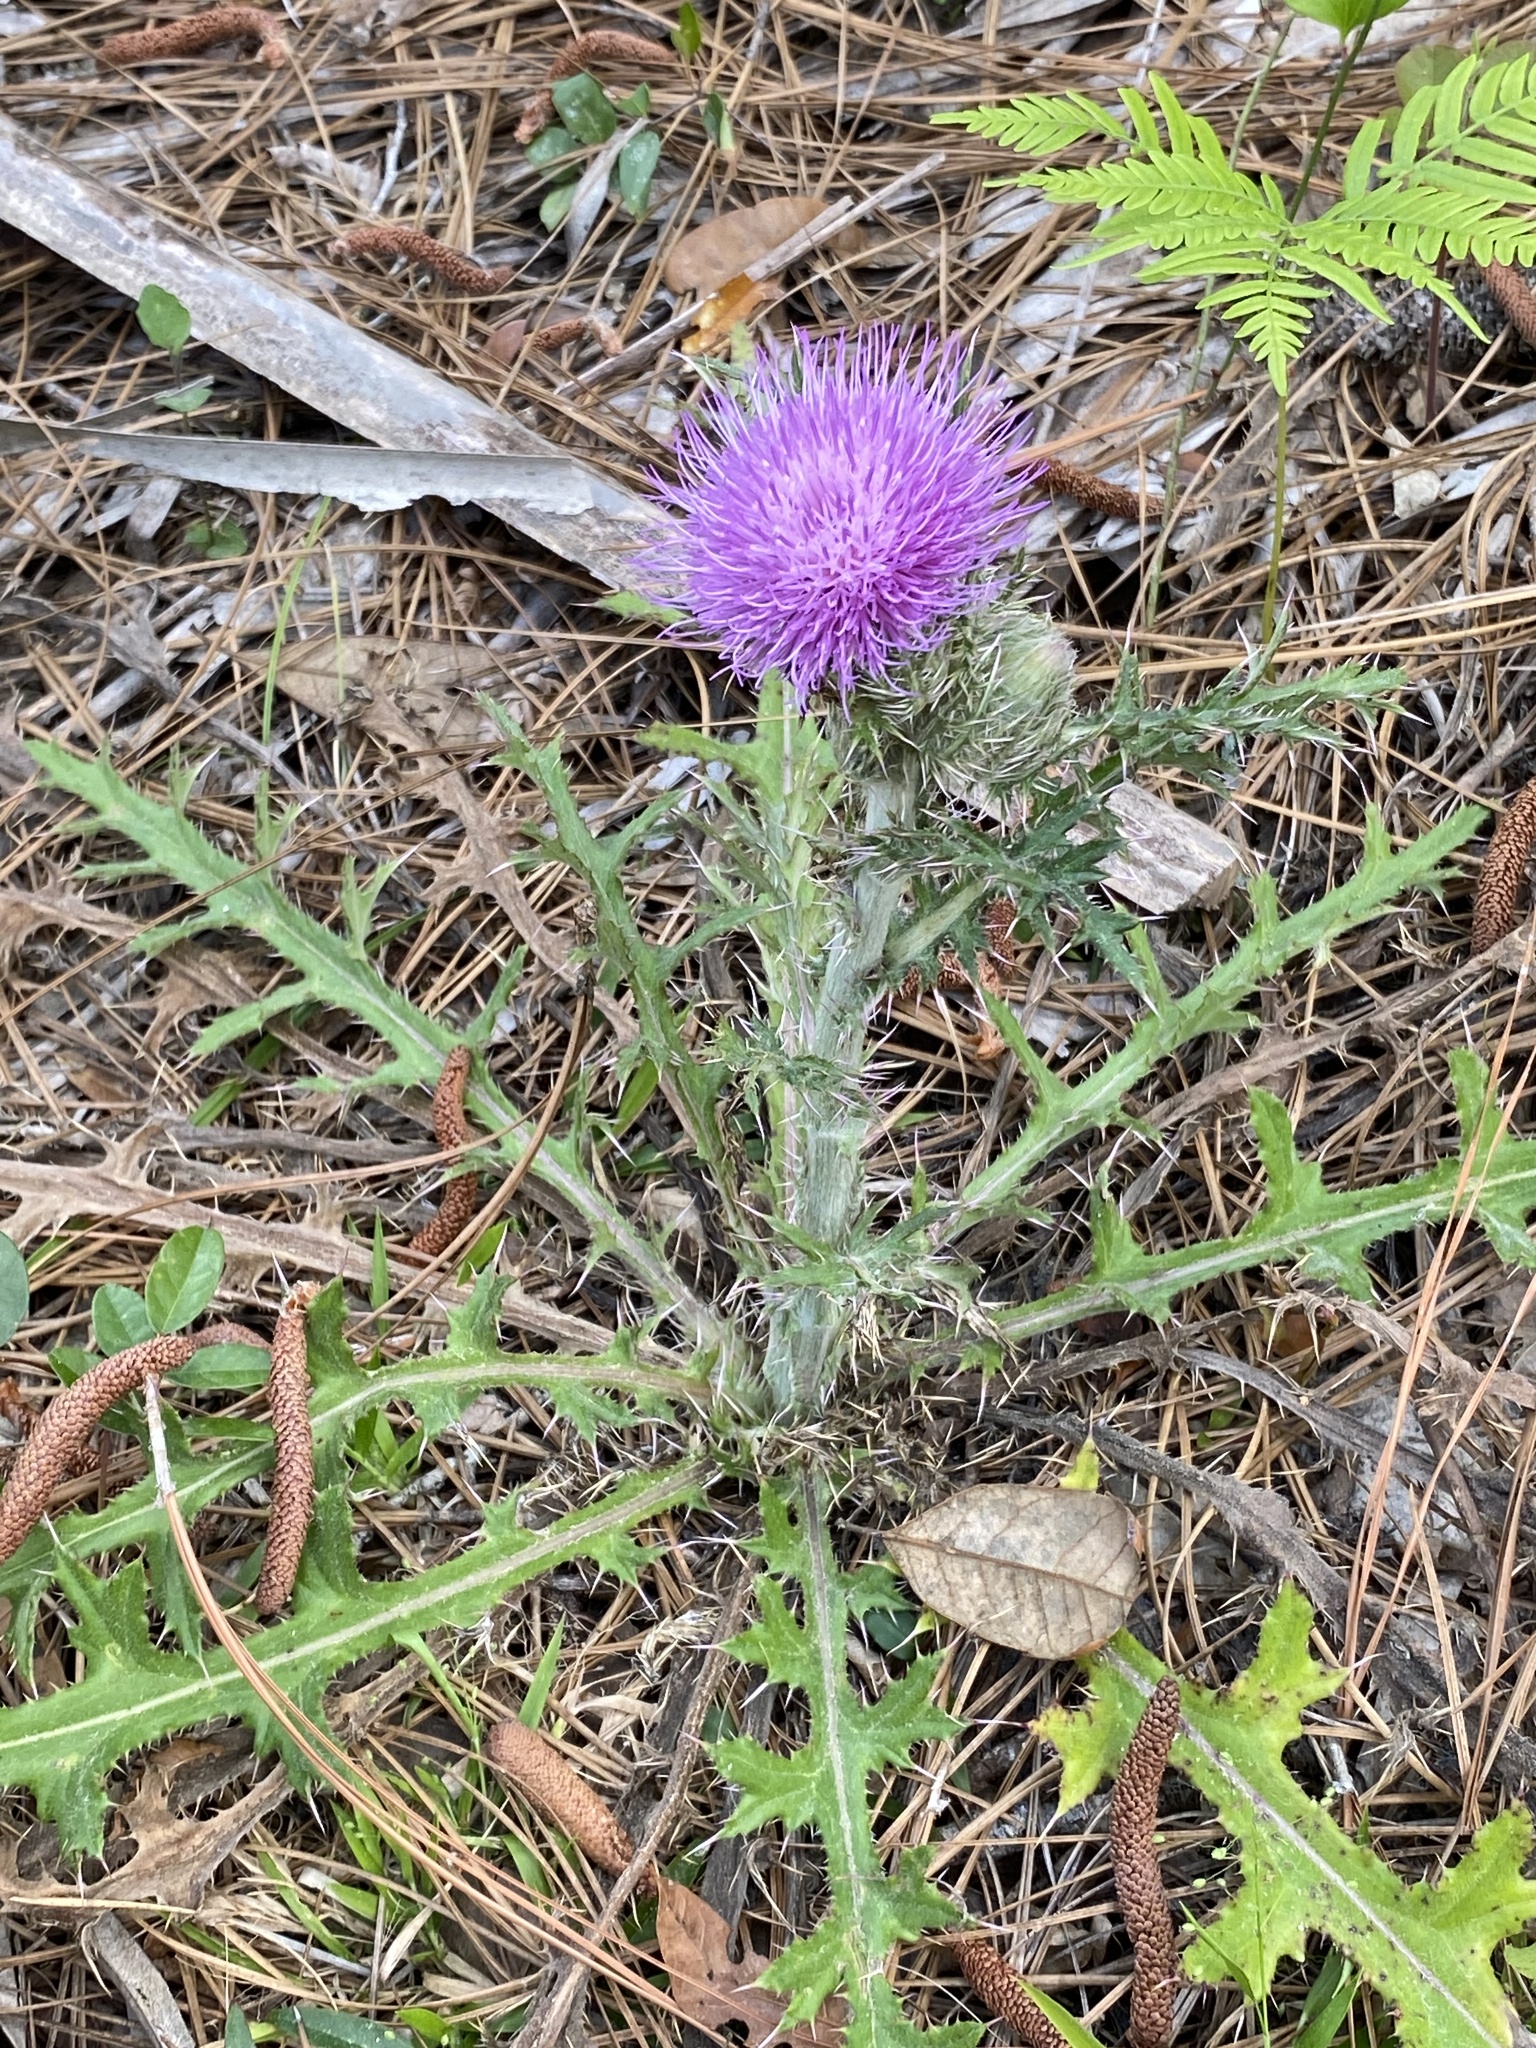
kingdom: Plantae
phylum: Tracheophyta
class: Magnoliopsida
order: Asterales
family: Asteraceae
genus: Cirsium
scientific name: Cirsium horridulum
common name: Bristly thistle
